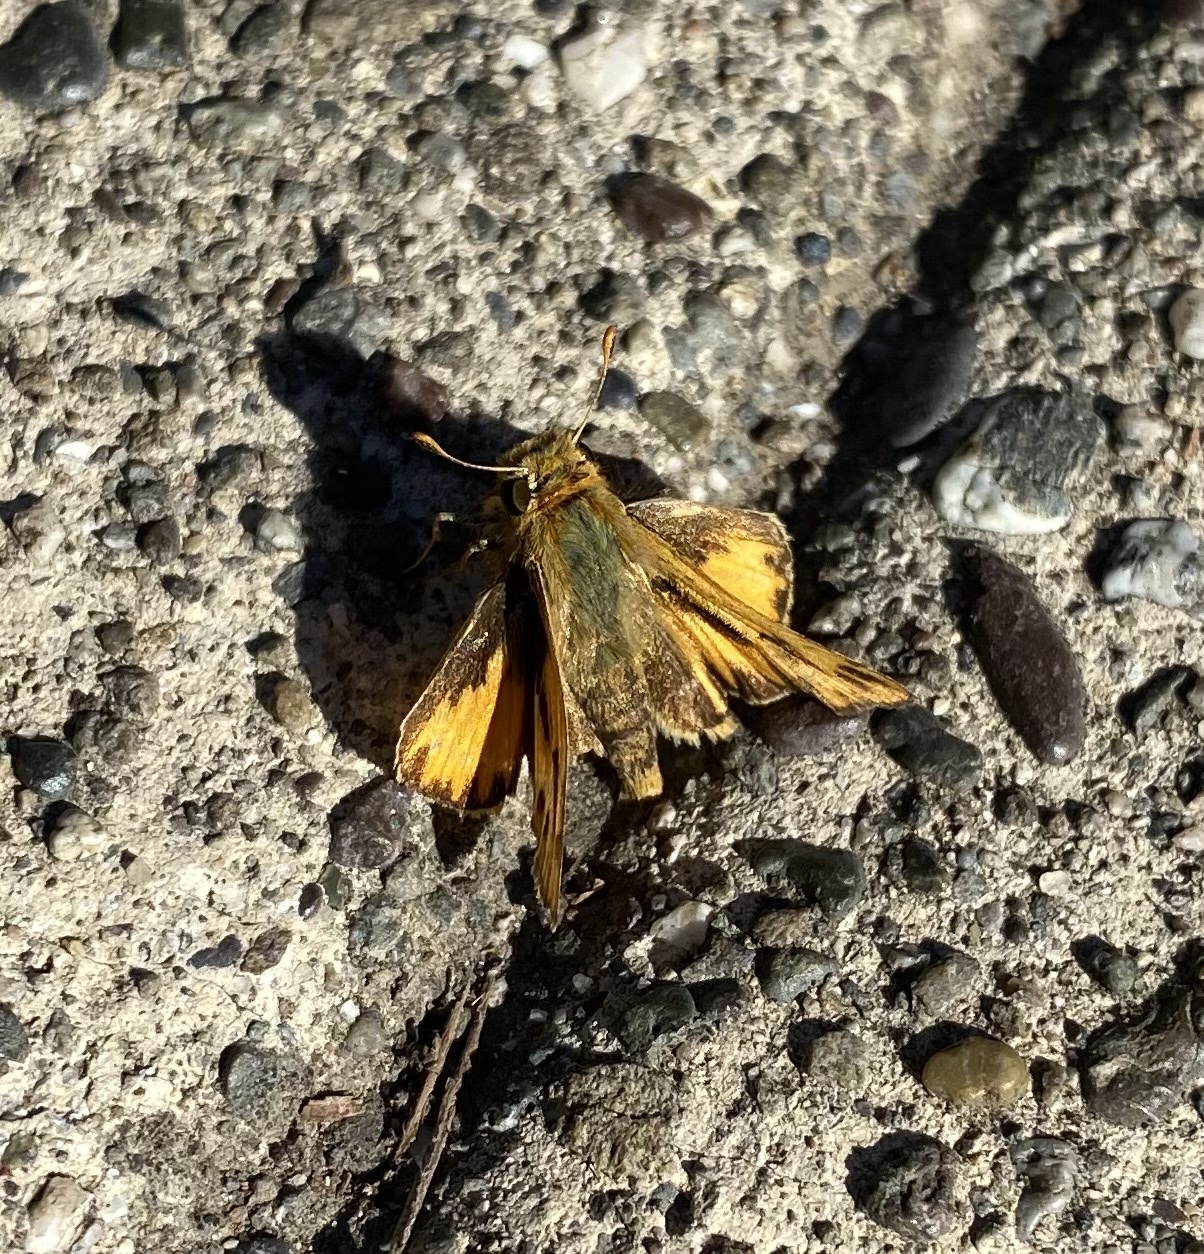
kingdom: Animalia
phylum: Arthropoda
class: Insecta
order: Lepidoptera
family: Hesperiidae
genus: Hylephila
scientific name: Hylephila phyleus
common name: Fiery skipper
